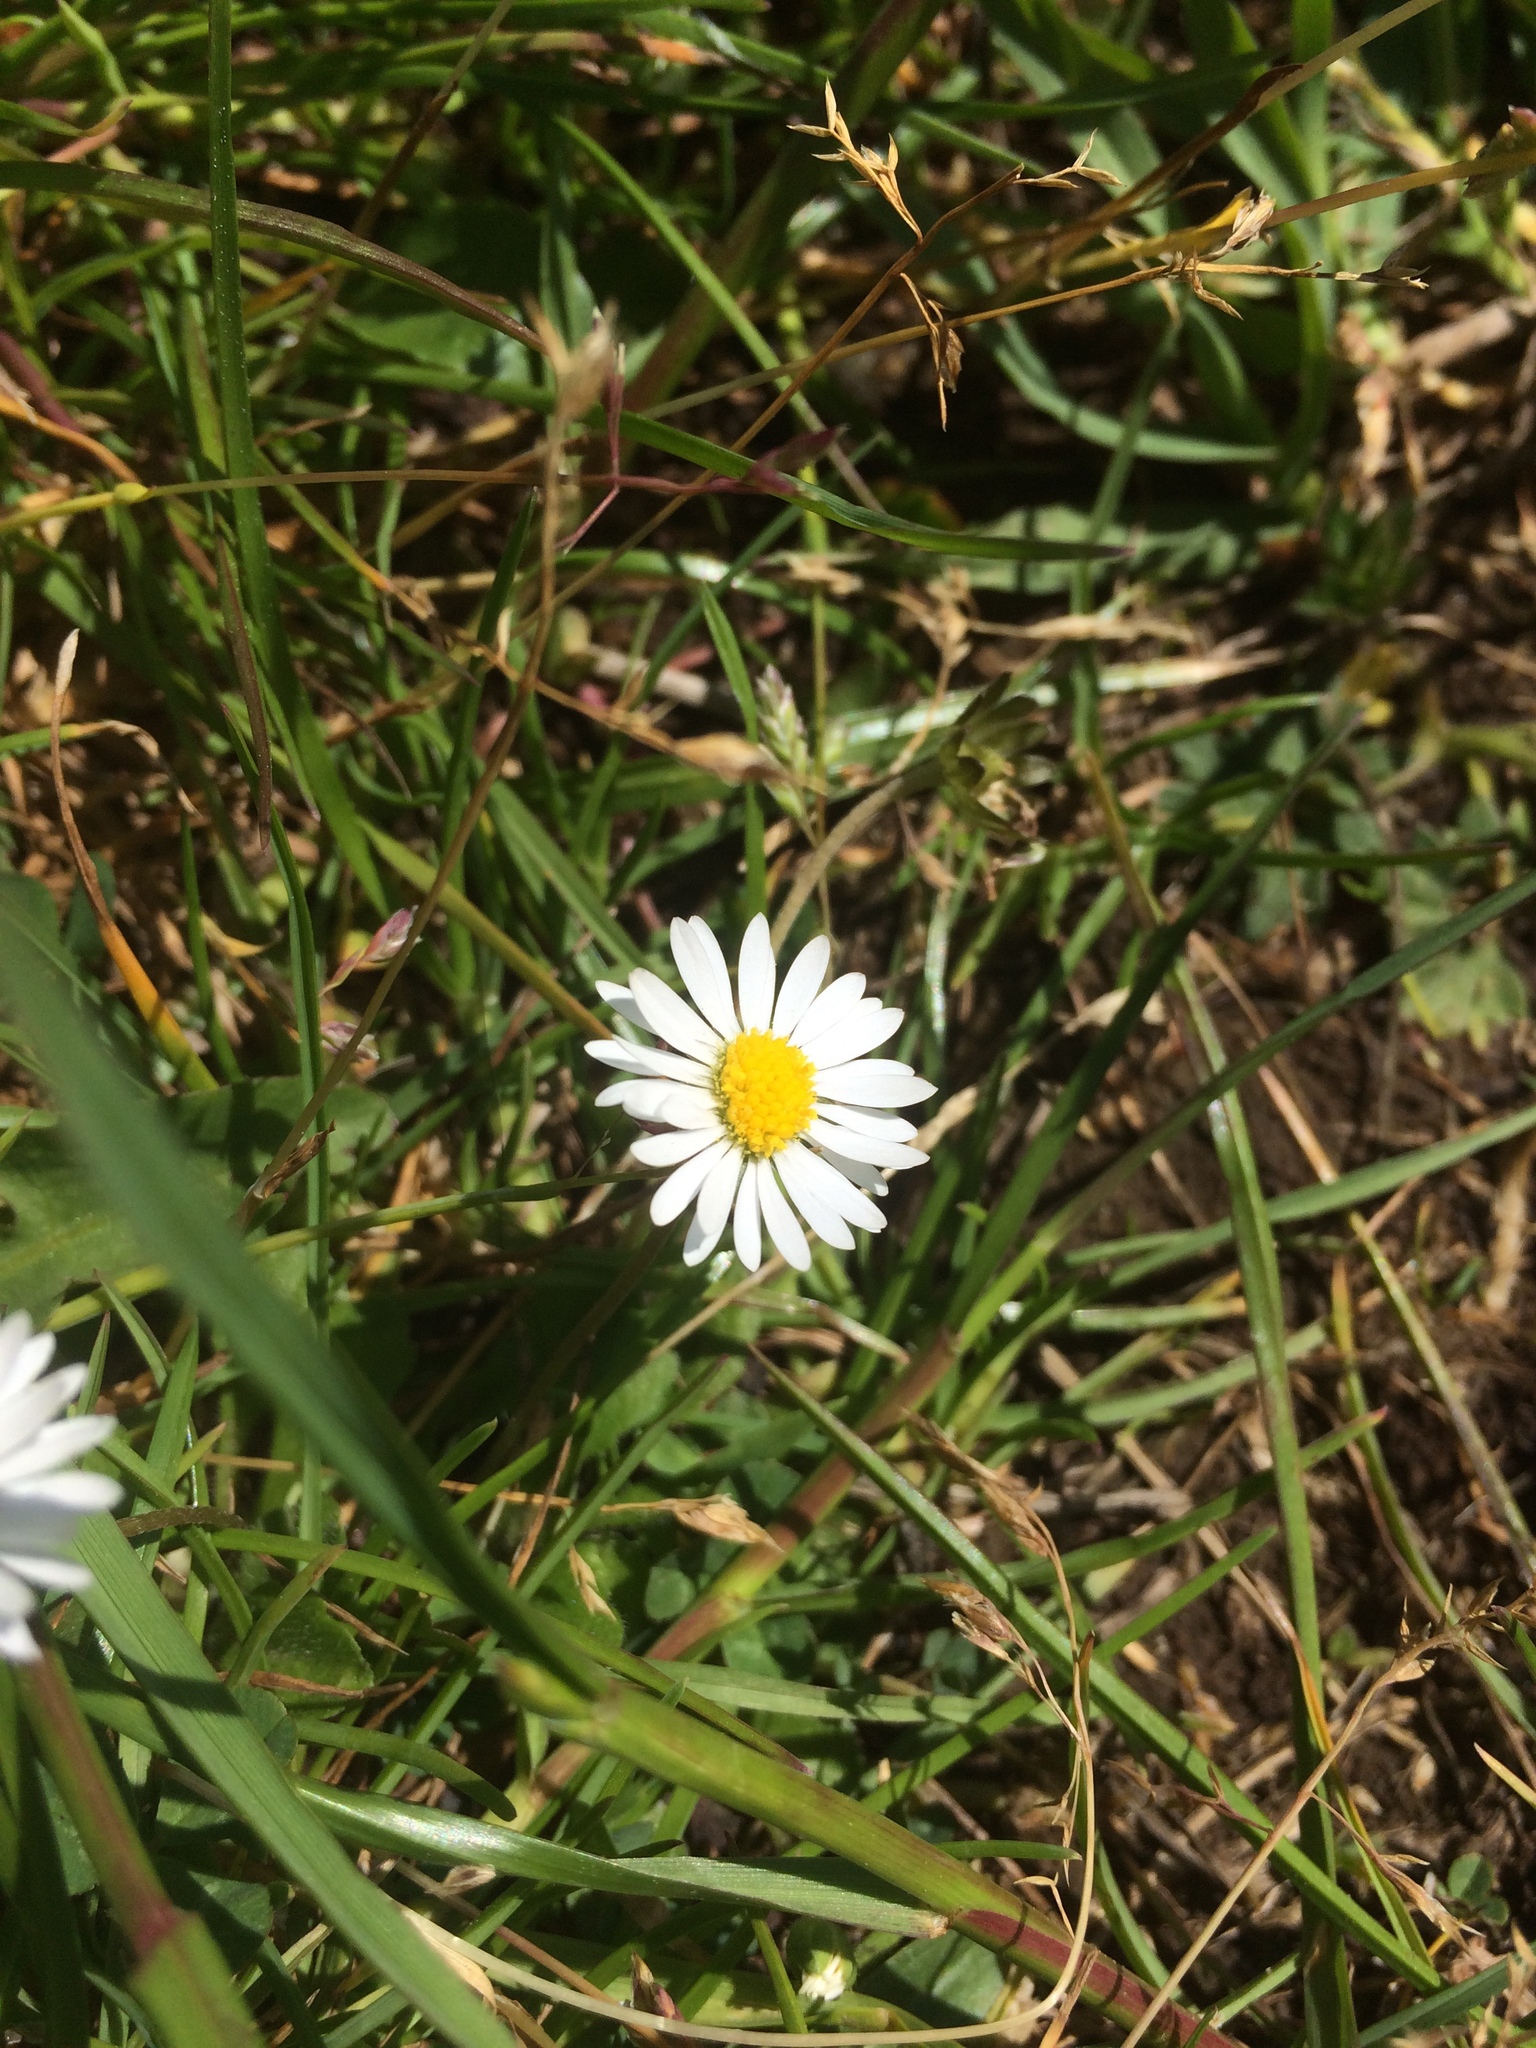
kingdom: Plantae
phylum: Tracheophyta
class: Magnoliopsida
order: Asterales
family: Asteraceae
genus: Bellis
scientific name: Bellis perennis
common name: Lawndaisy
